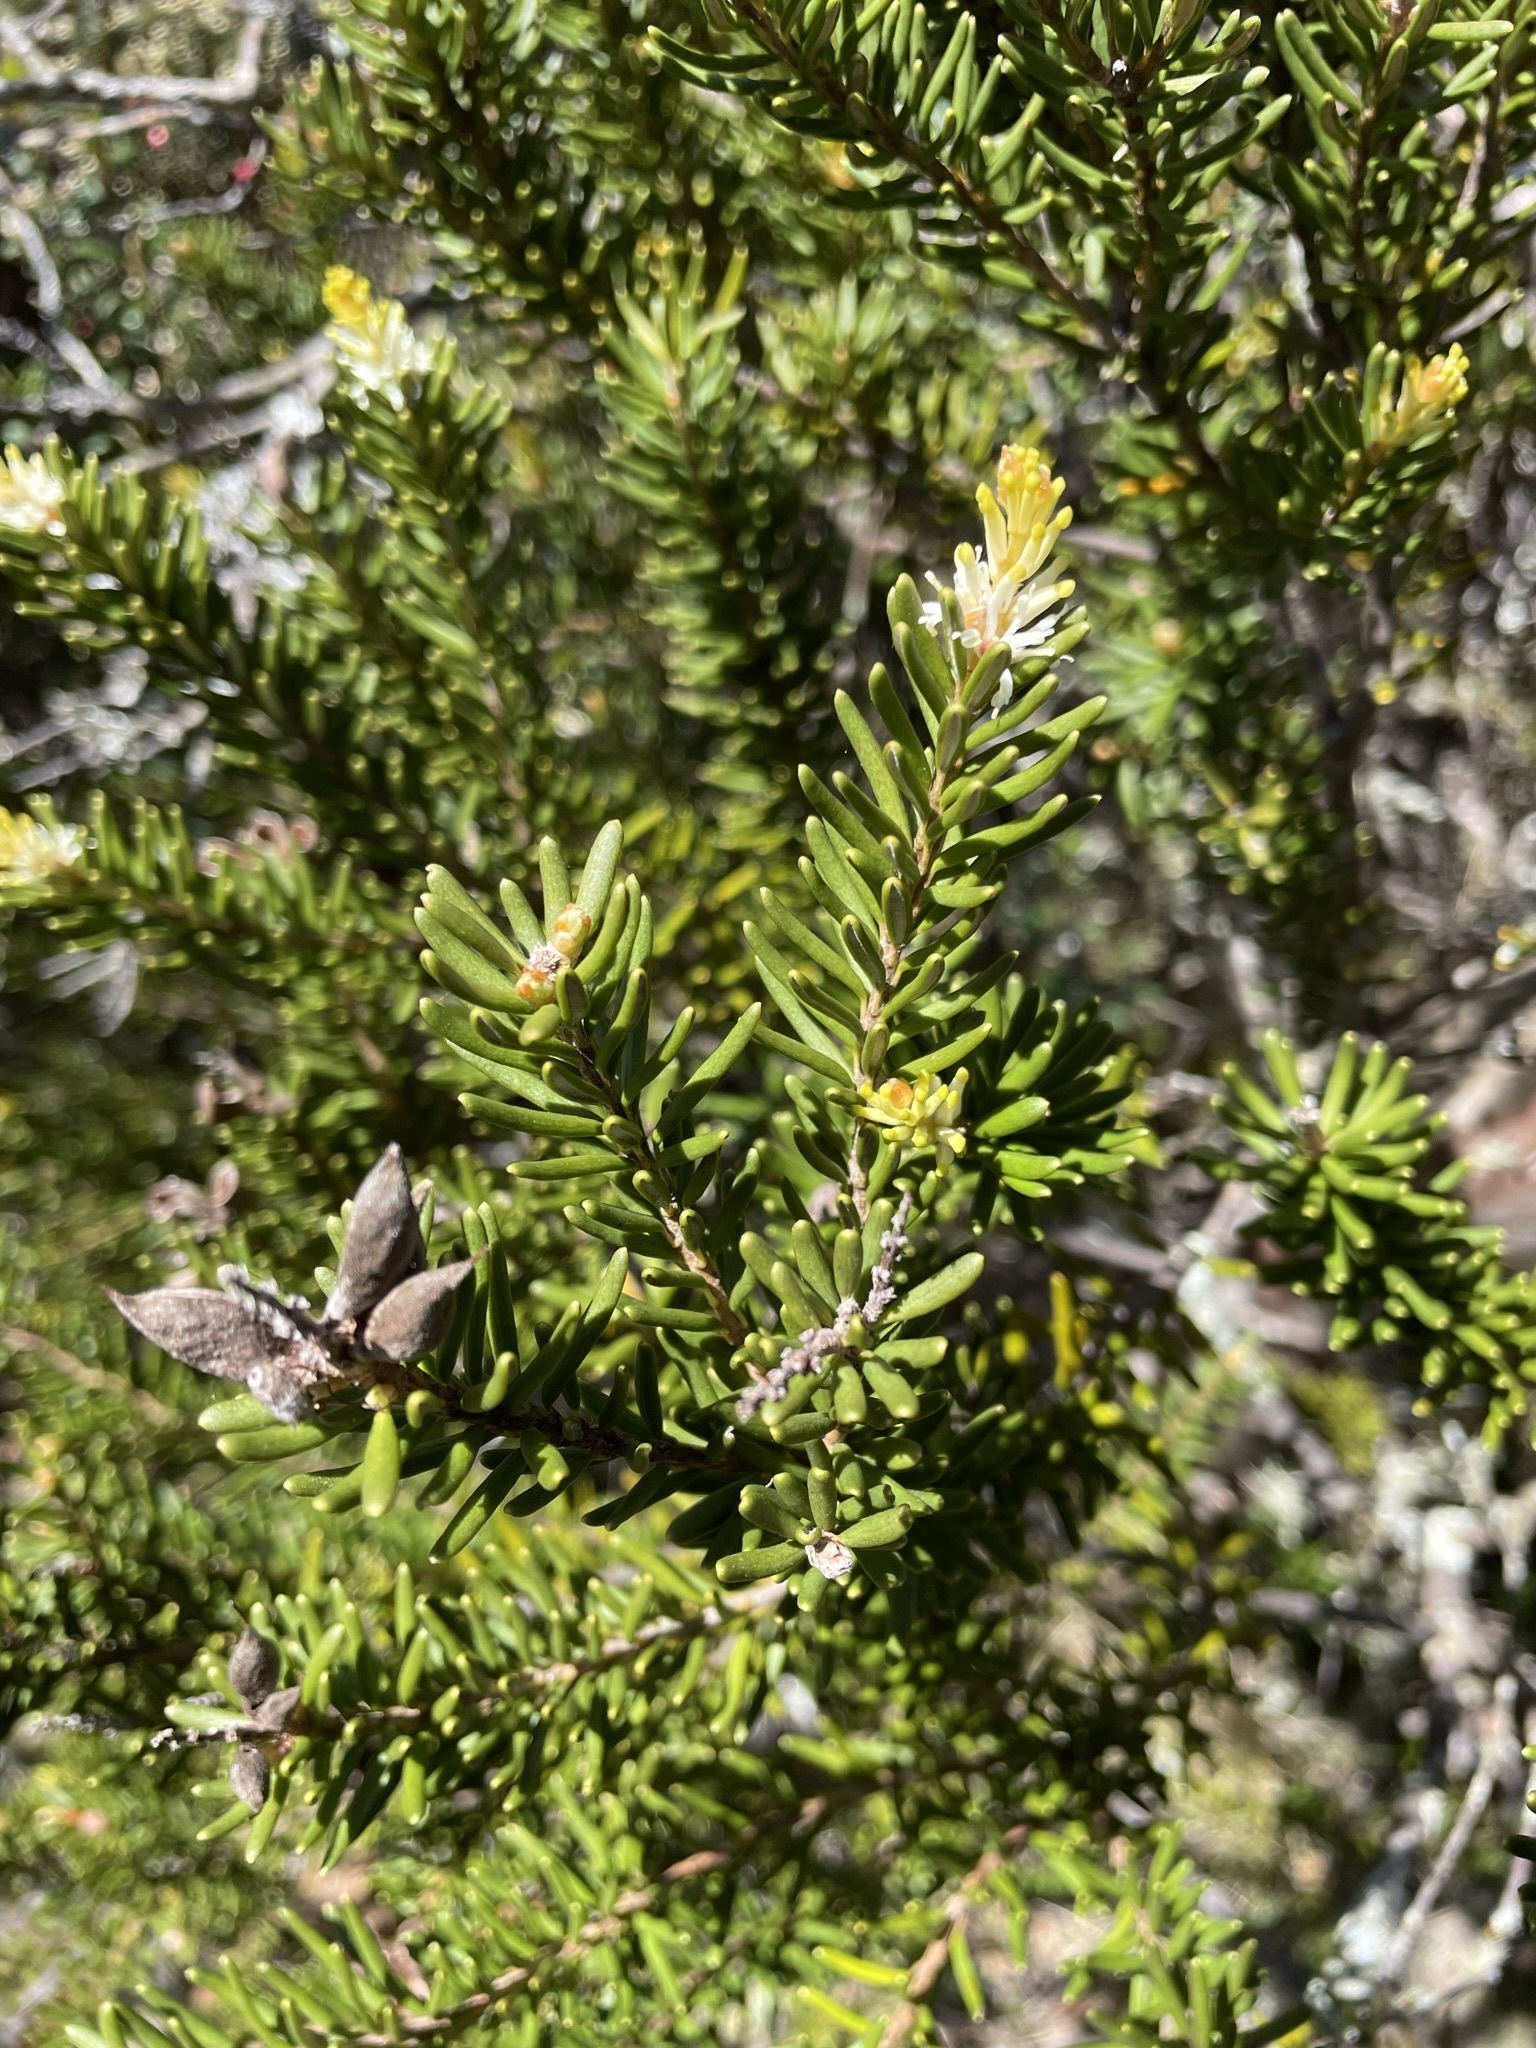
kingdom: Plantae
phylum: Tracheophyta
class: Magnoliopsida
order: Proteales
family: Proteaceae
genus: Orites
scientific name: Orites revolutus
